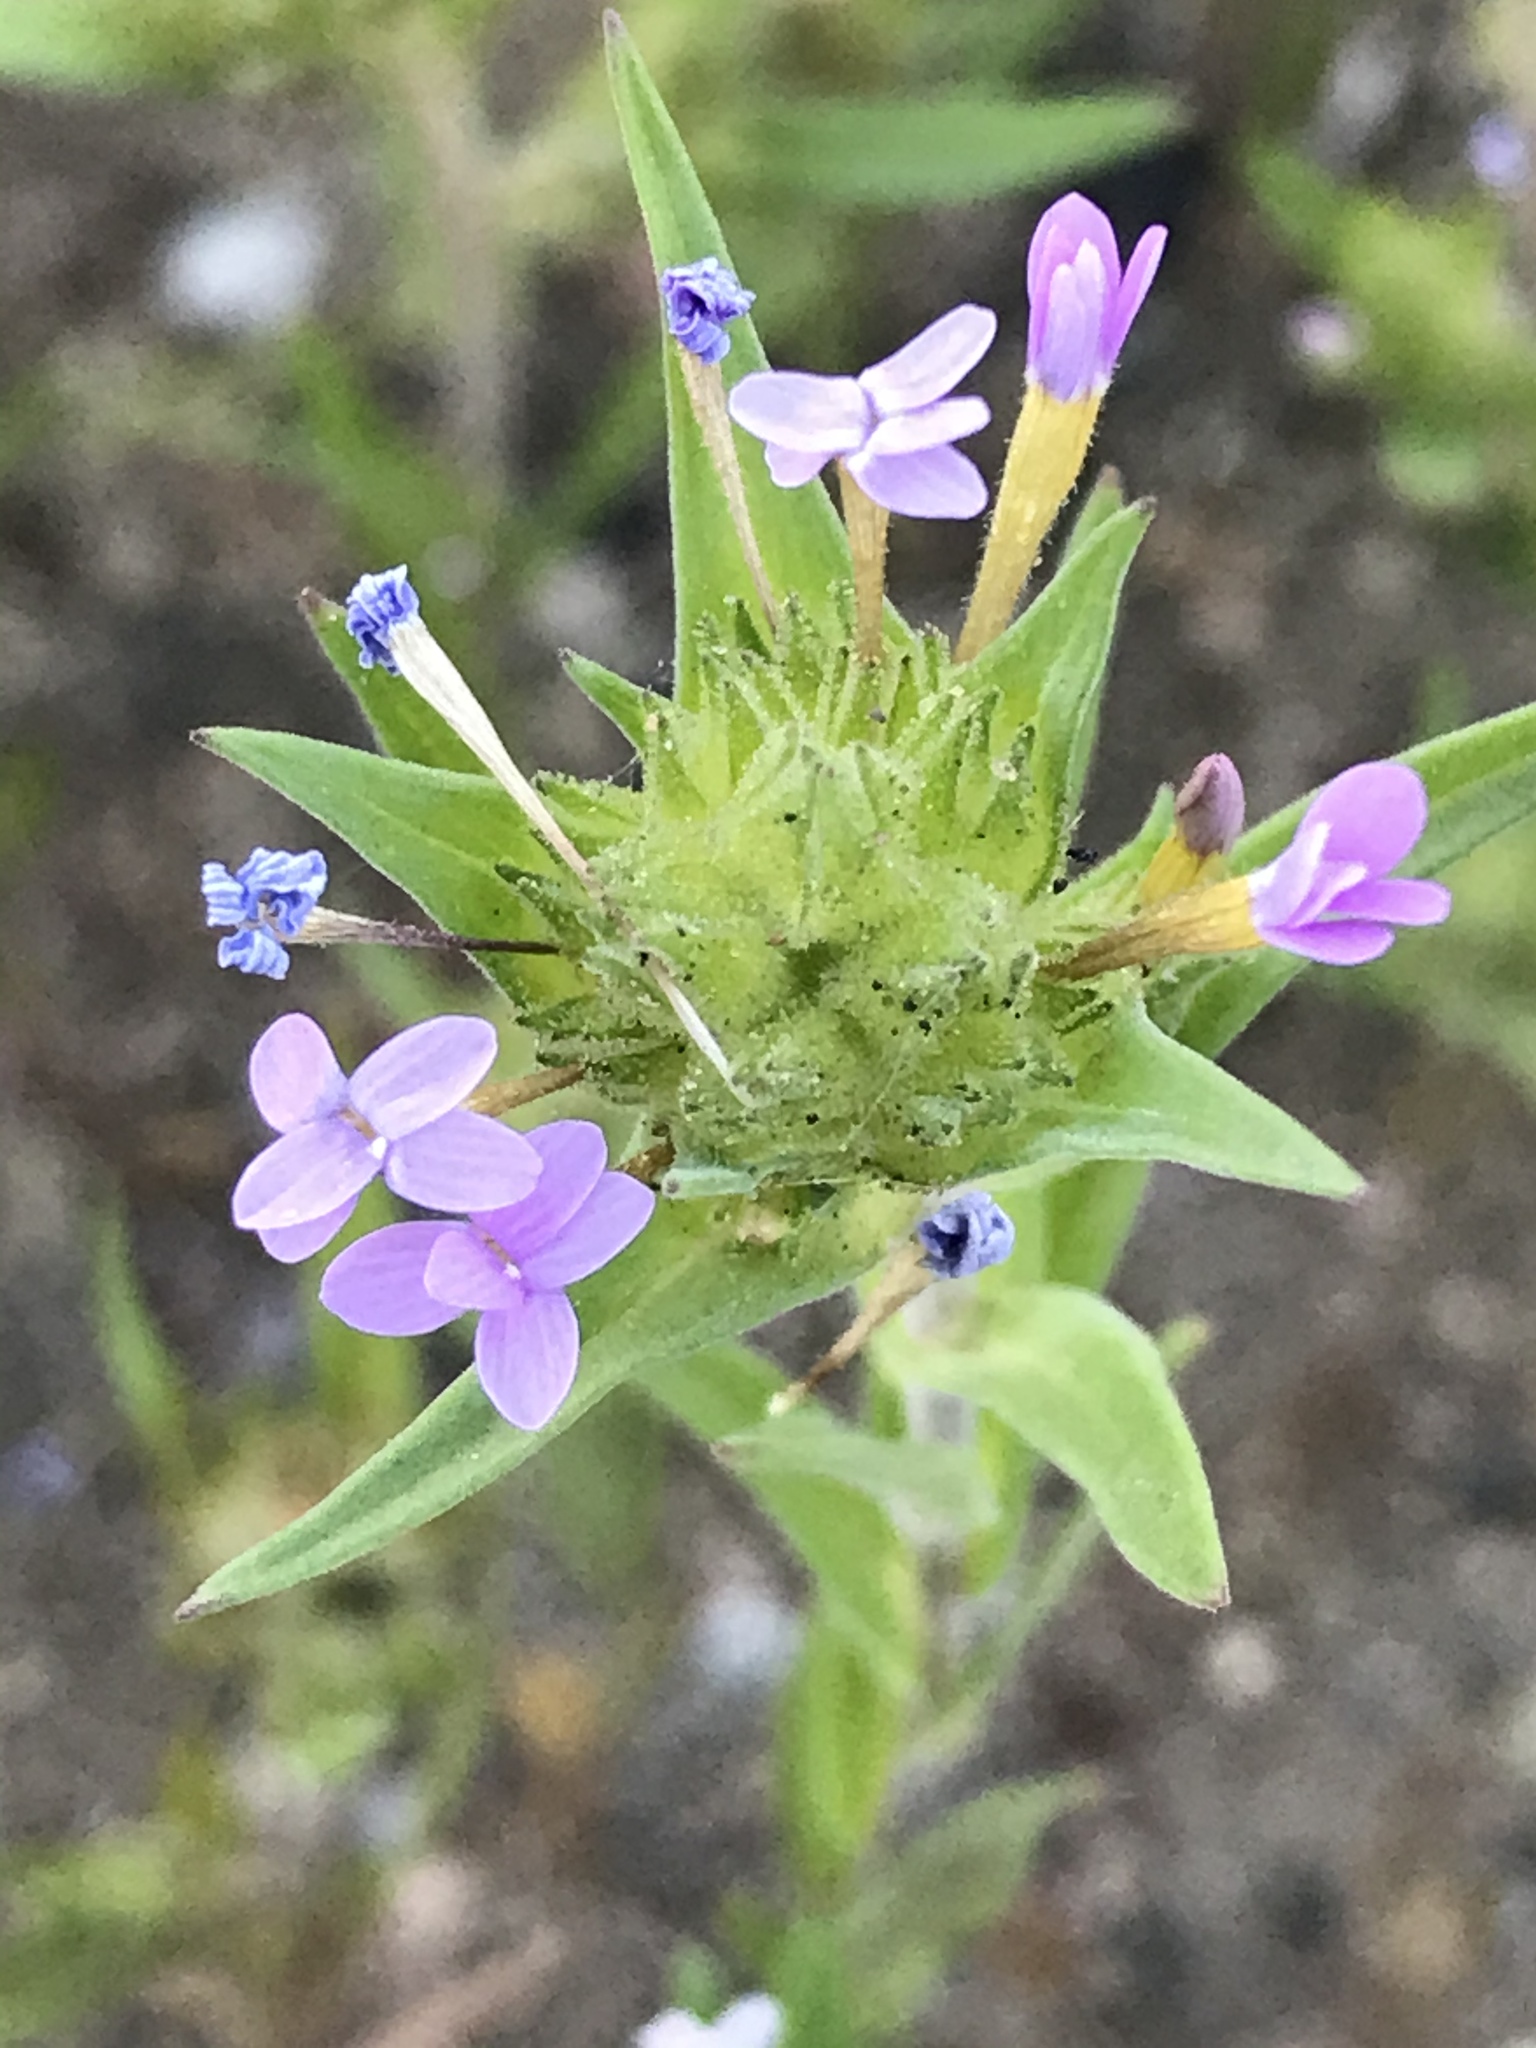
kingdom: Plantae
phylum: Tracheophyta
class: Magnoliopsida
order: Ericales
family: Polemoniaceae
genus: Collomia
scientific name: Collomia linearis
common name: Tiny trumpet
